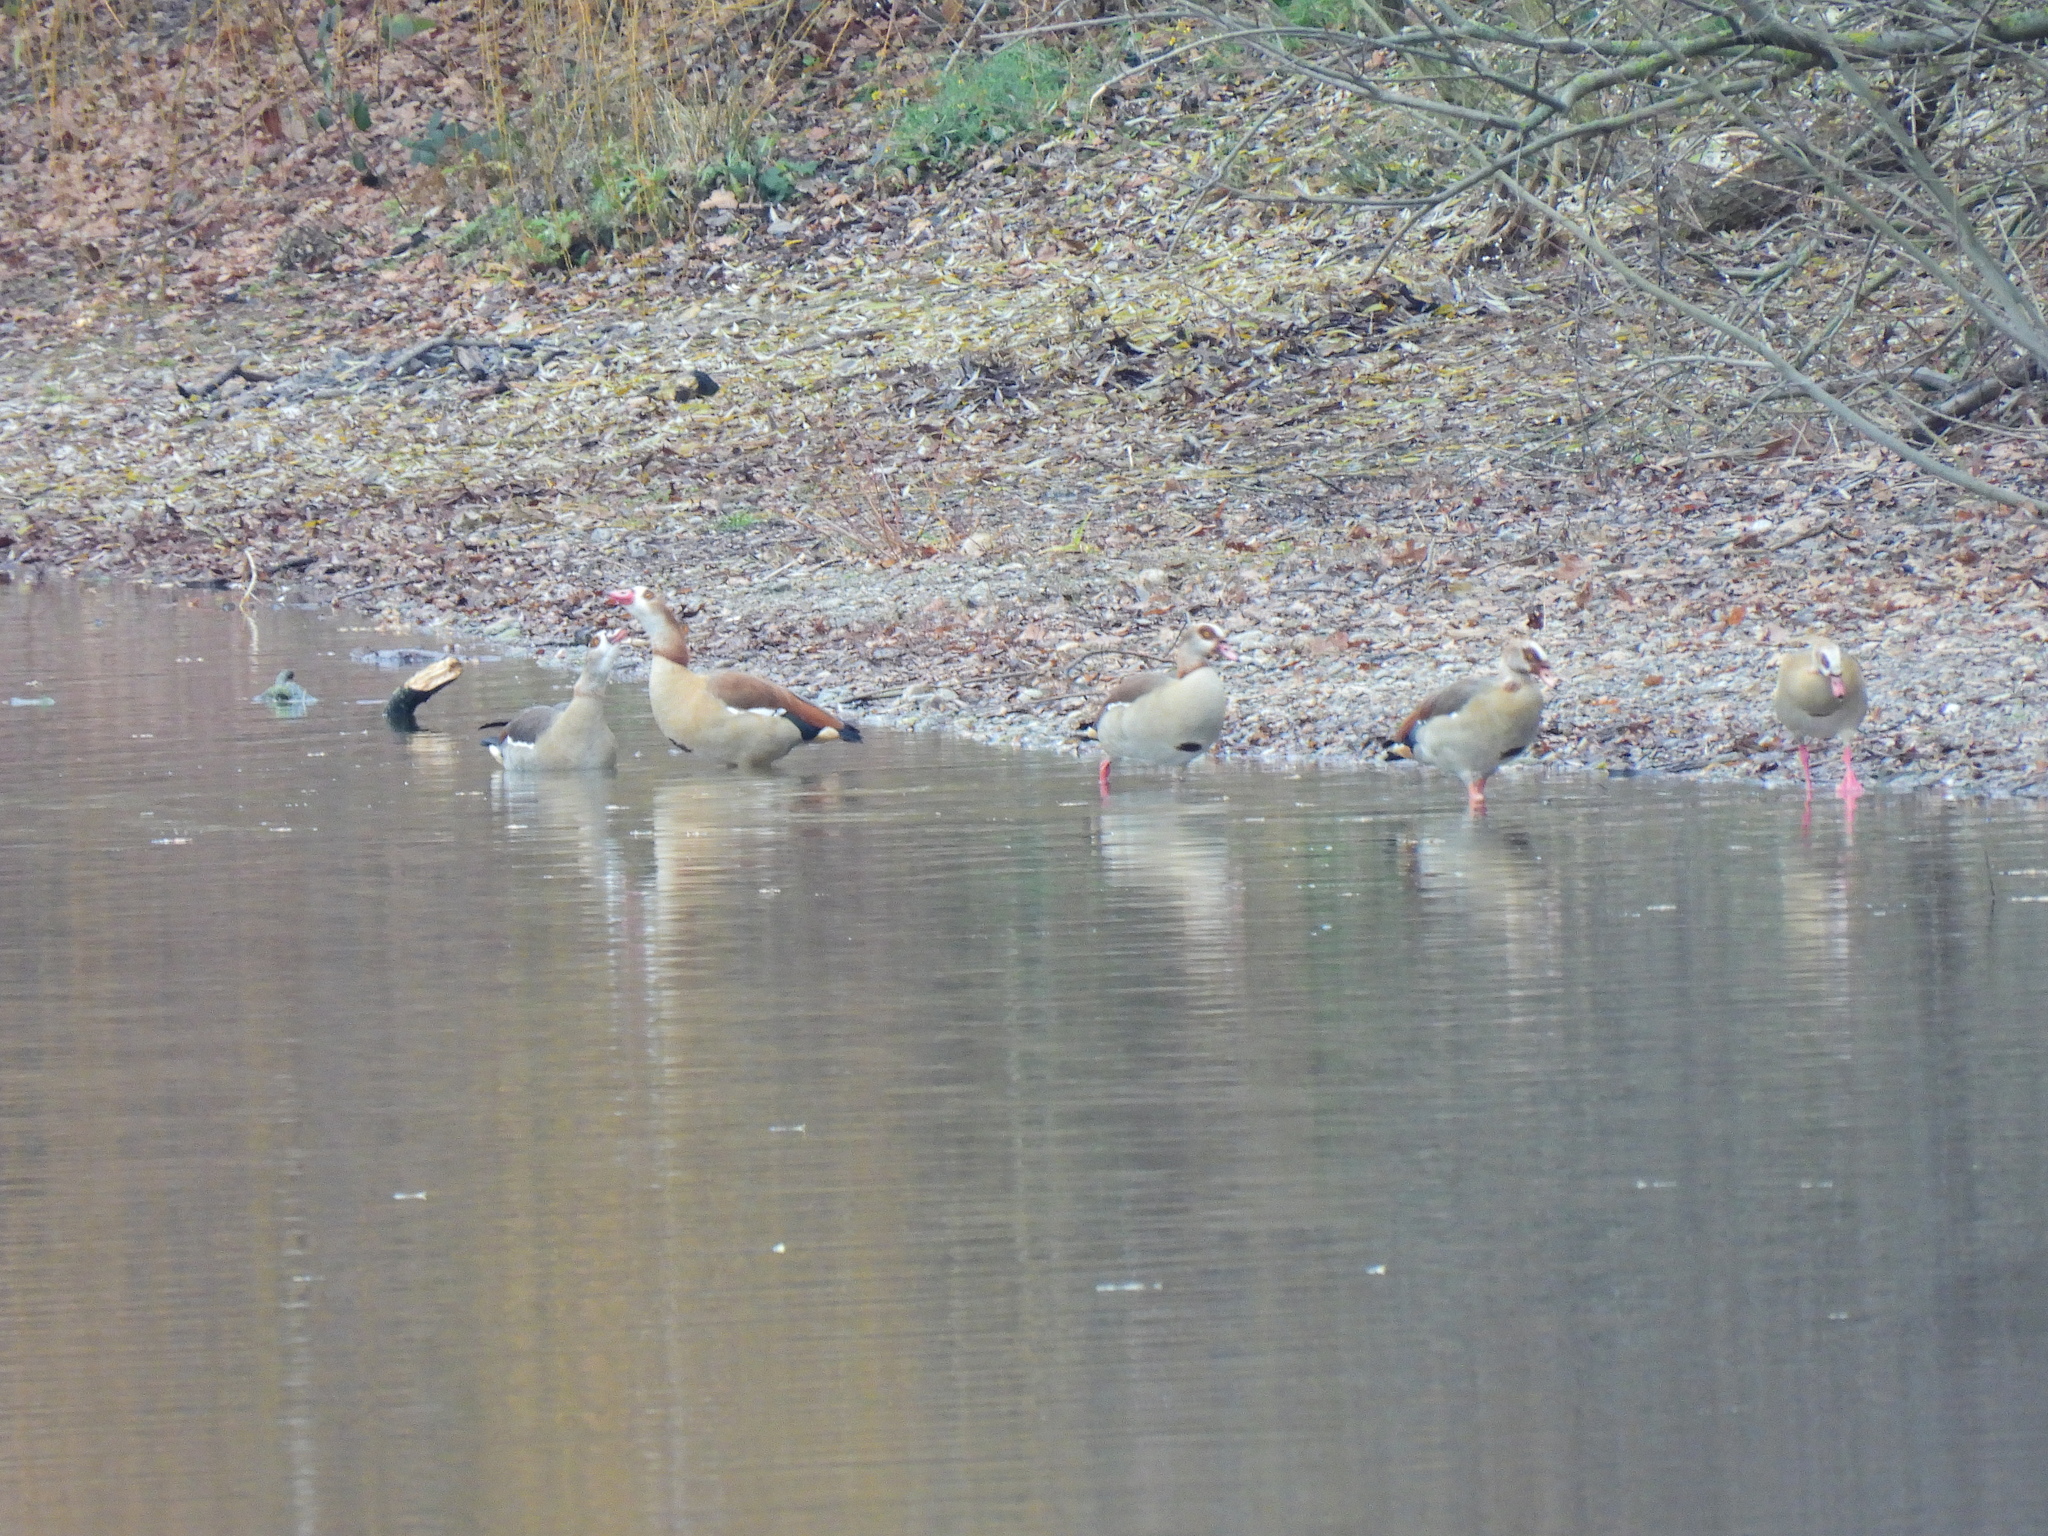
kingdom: Animalia
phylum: Chordata
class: Aves
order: Anseriformes
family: Anatidae
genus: Alopochen
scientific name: Alopochen aegyptiaca
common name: Egyptian goose
